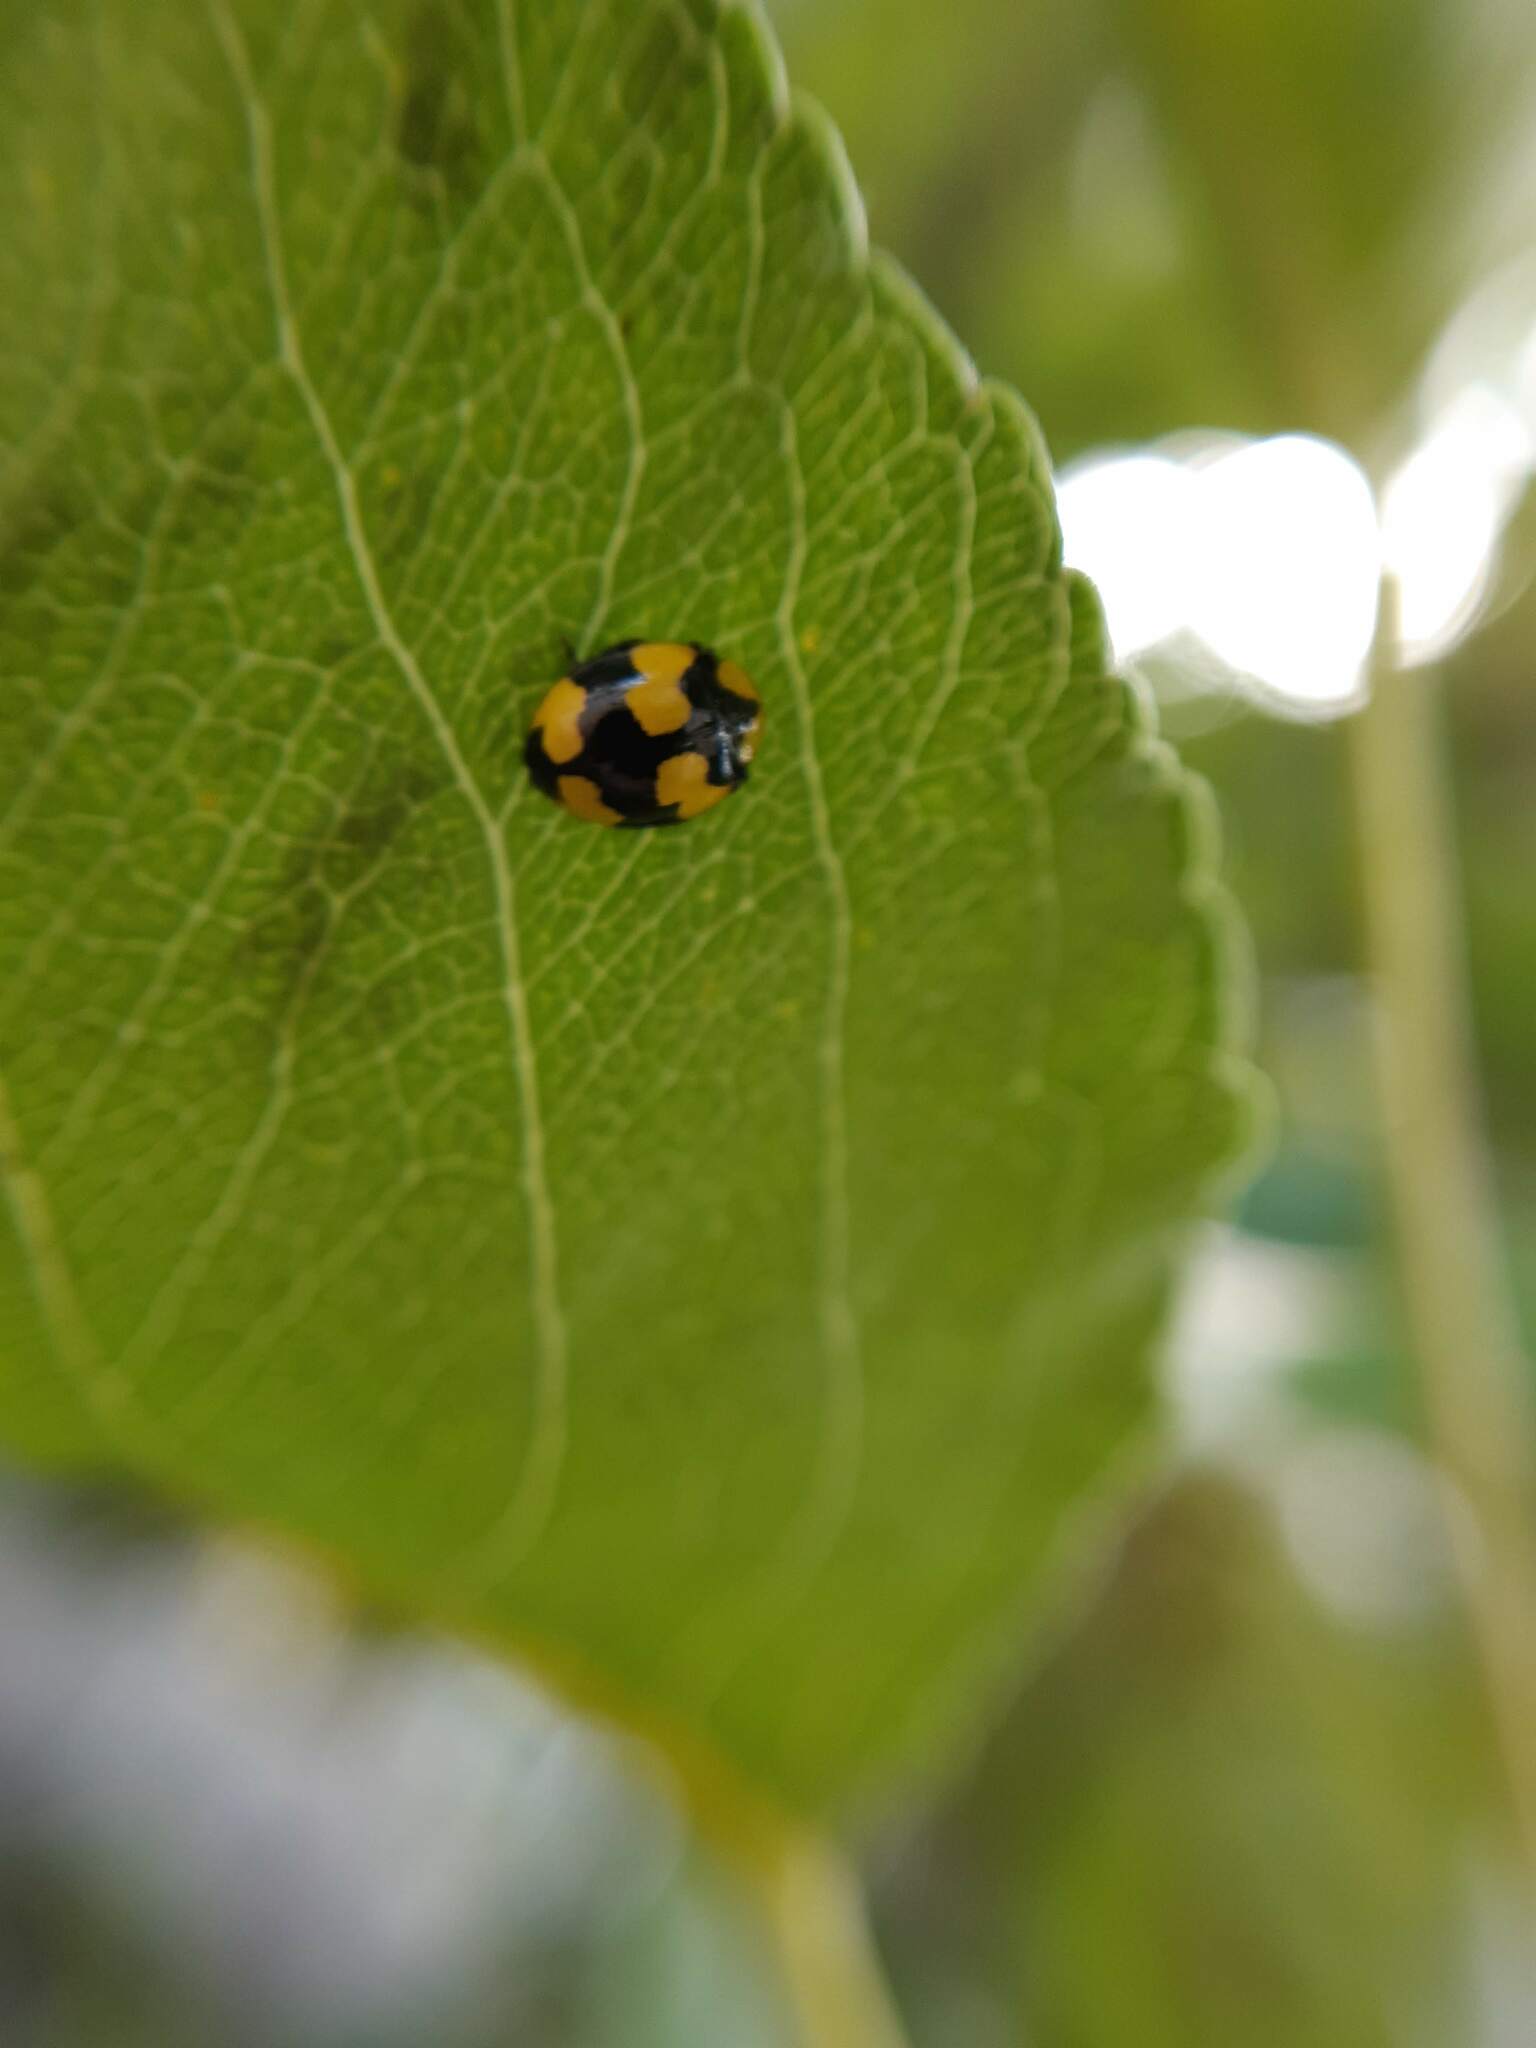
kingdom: Animalia
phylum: Arthropoda
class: Insecta
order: Coleoptera
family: Coccinellidae
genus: Illeis
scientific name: Illeis galbula
